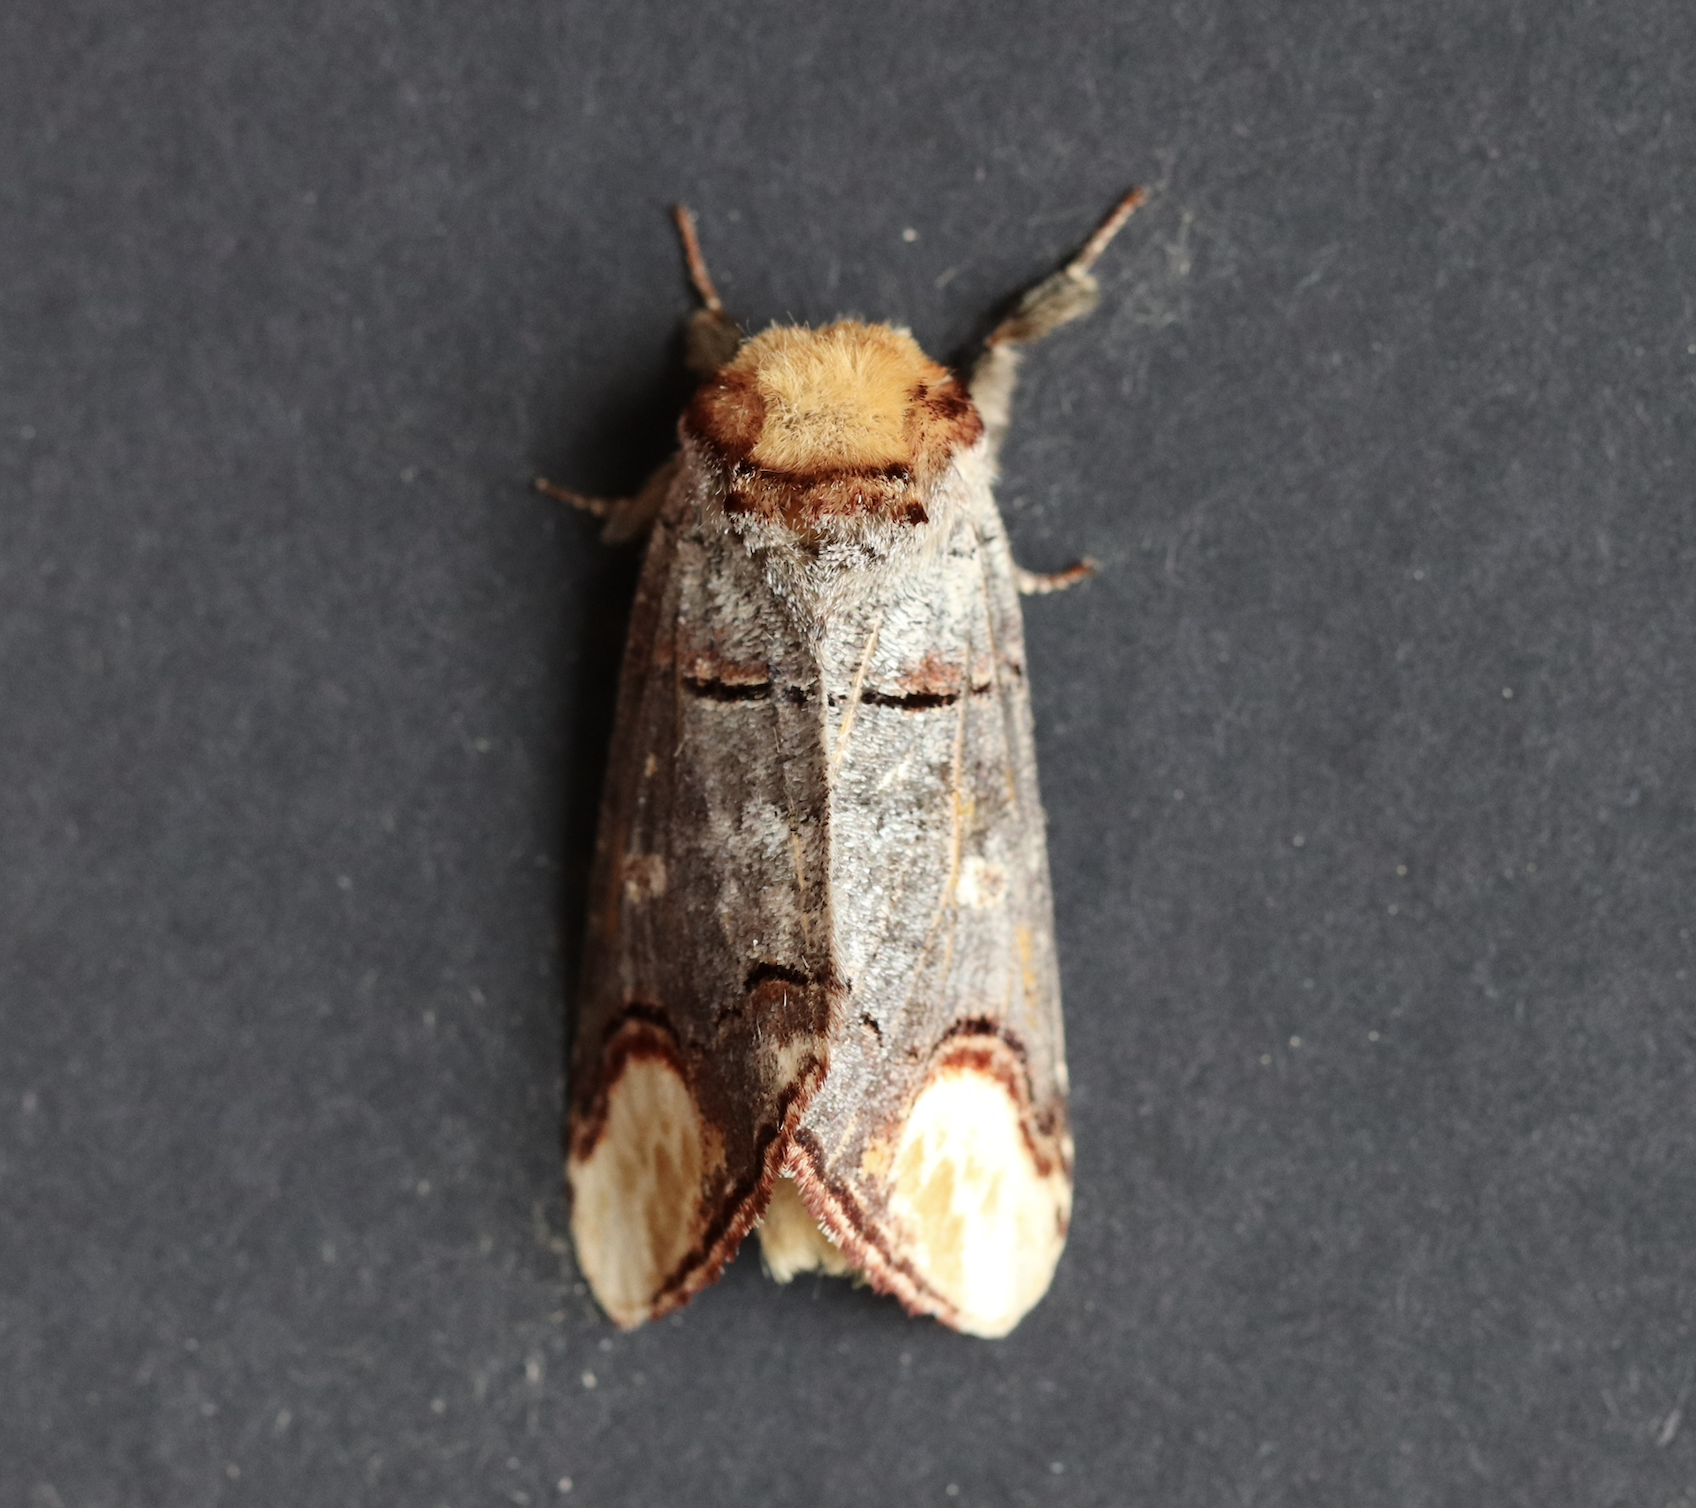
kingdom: Animalia
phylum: Arthropoda
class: Insecta
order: Lepidoptera
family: Notodontidae
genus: Phalera
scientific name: Phalera bucephala
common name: Buff-tip
